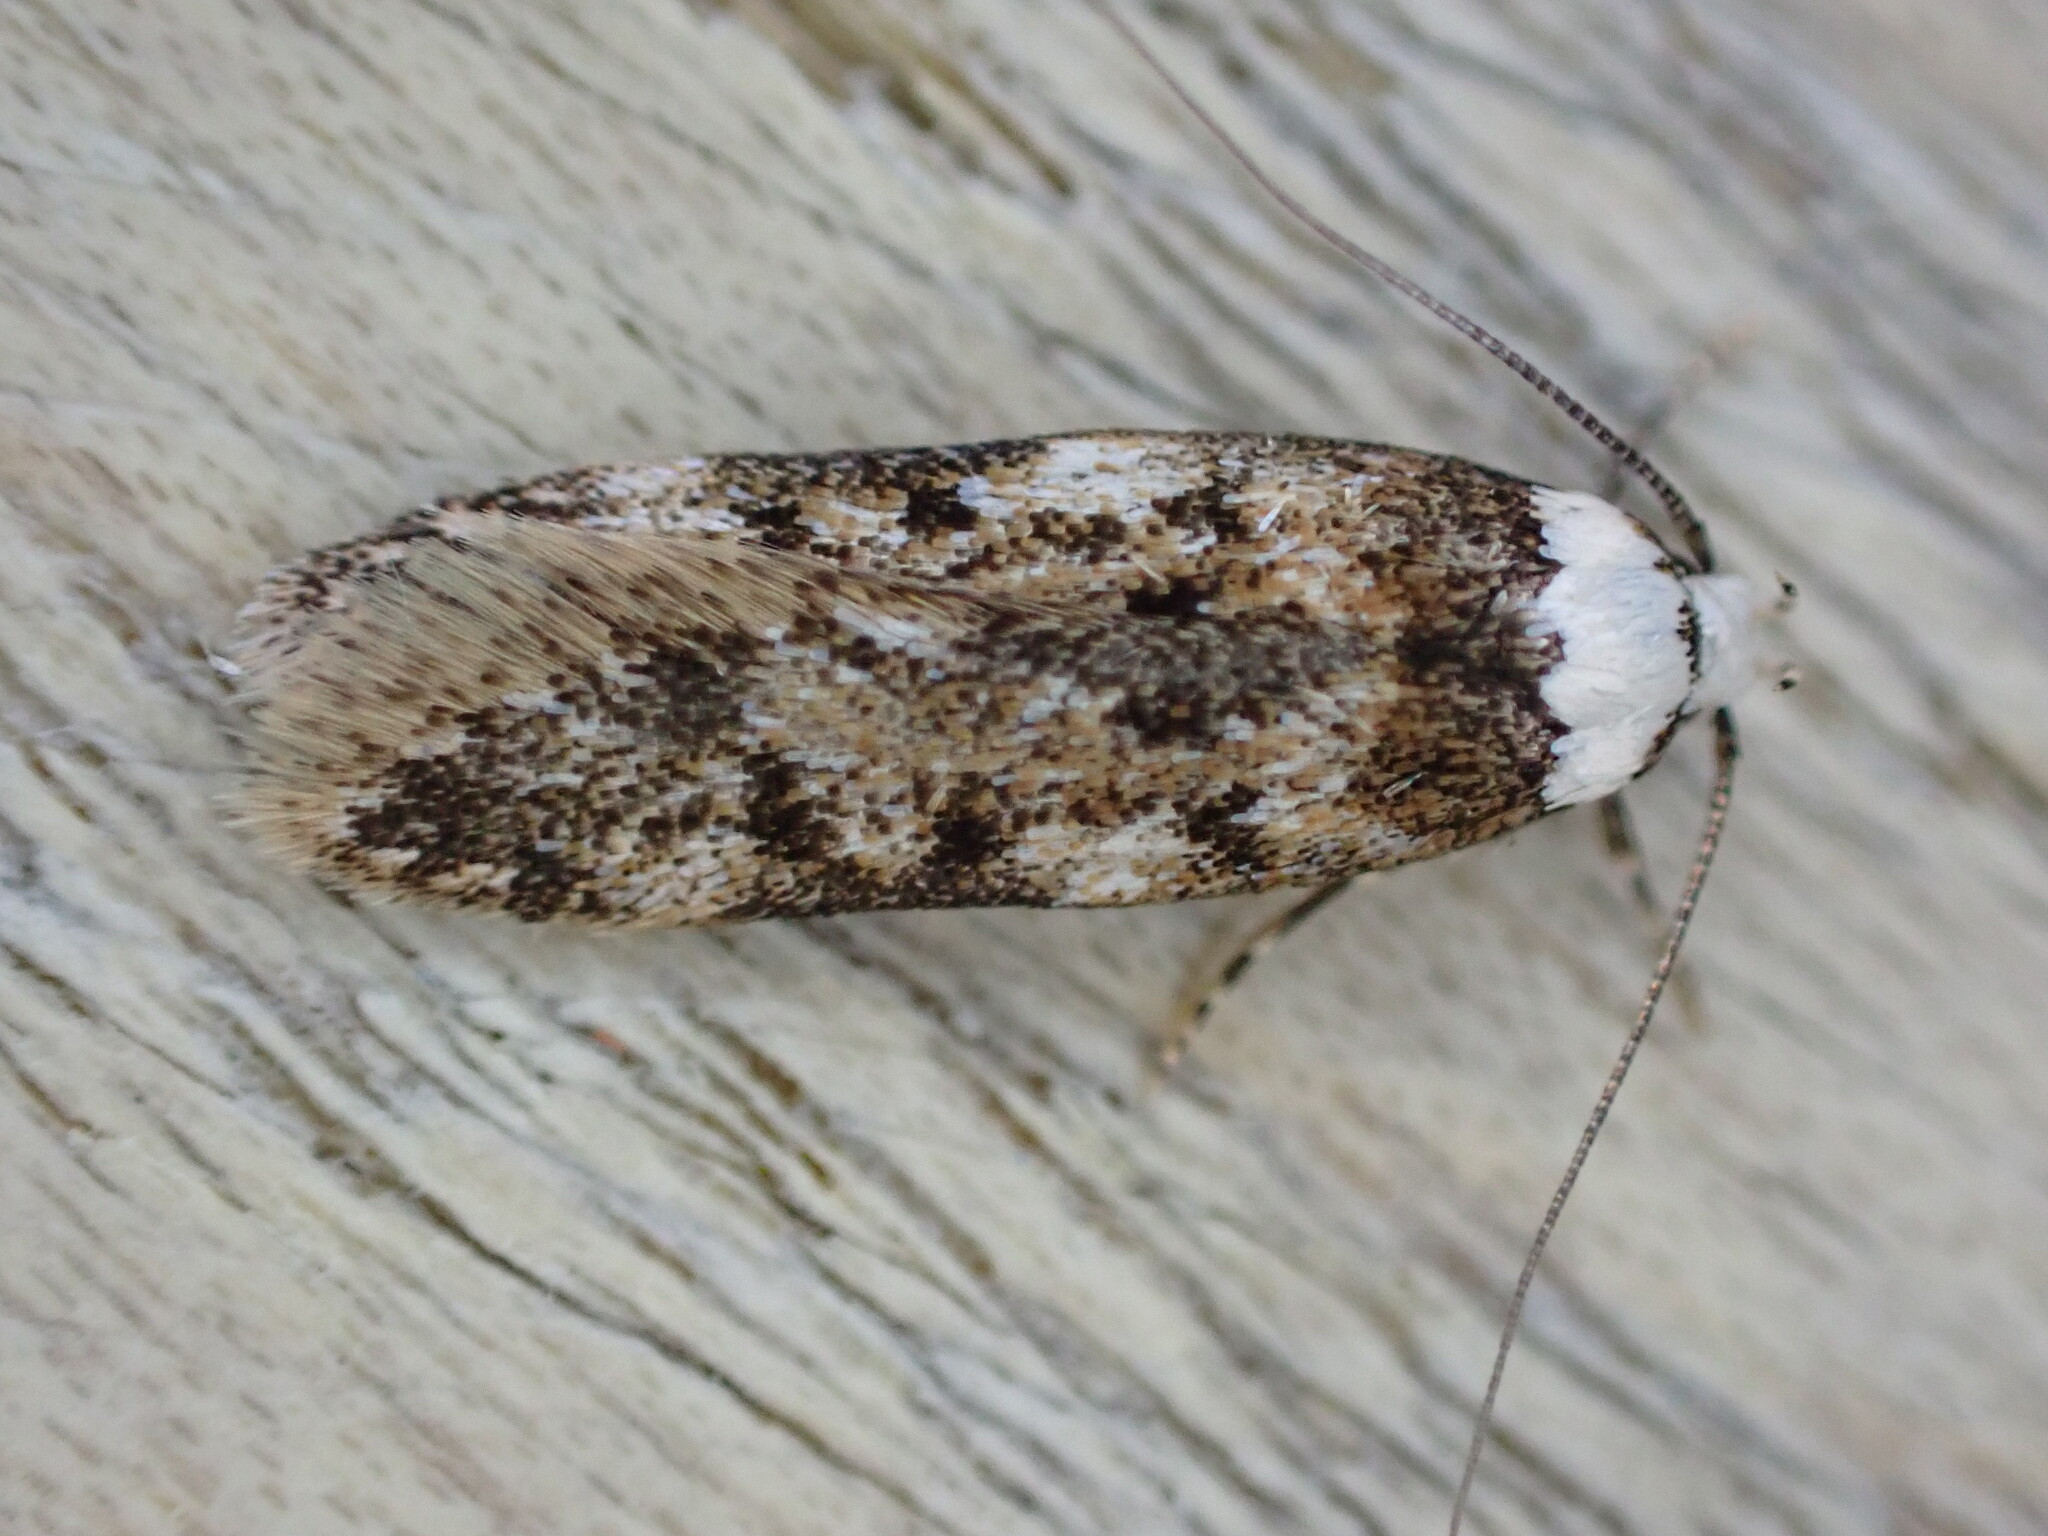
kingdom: Animalia
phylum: Arthropoda
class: Insecta
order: Lepidoptera
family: Oecophoridae
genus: Endrosis
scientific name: Endrosis sarcitrella
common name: White-shouldered house moth
